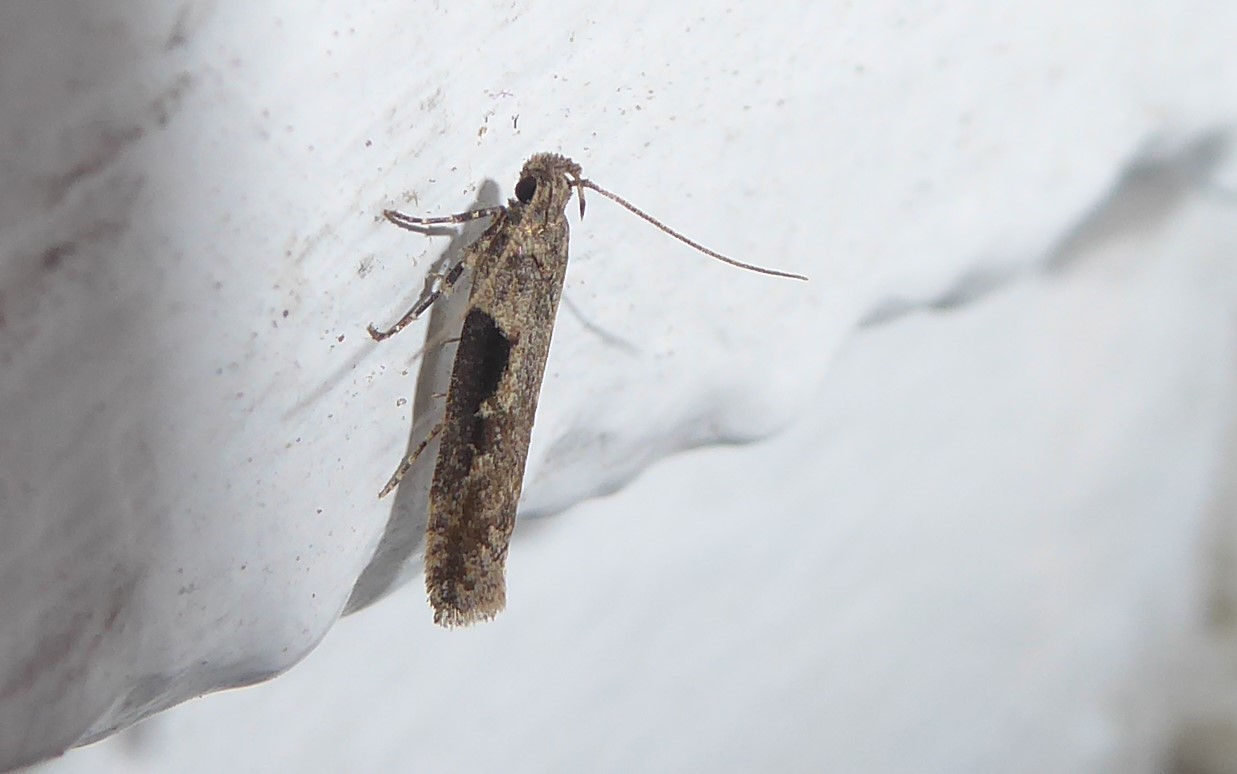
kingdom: Animalia
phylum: Arthropoda
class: Insecta
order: Lepidoptera
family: Gelechiidae
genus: Symmetrischema
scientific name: Symmetrischema tangolias
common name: Moth
